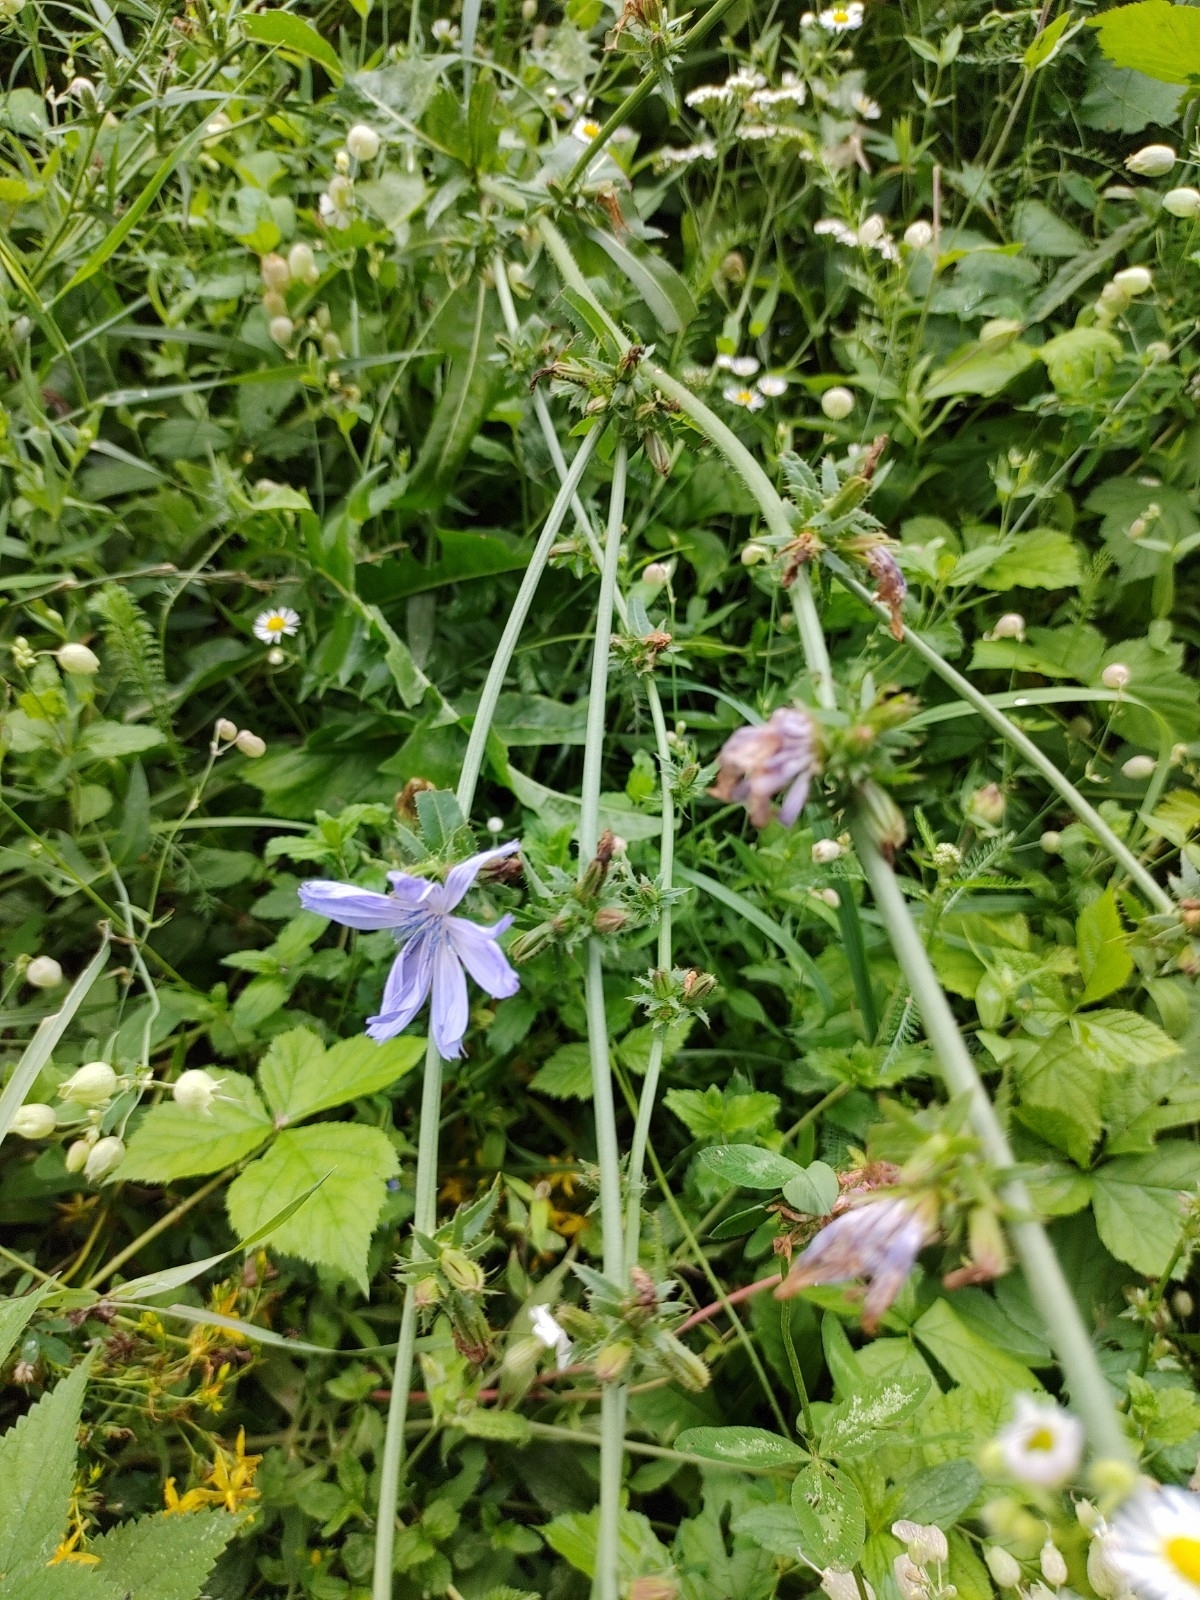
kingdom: Plantae
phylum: Tracheophyta
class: Magnoliopsida
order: Asterales
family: Asteraceae
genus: Cichorium
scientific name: Cichorium intybus
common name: Chicory
